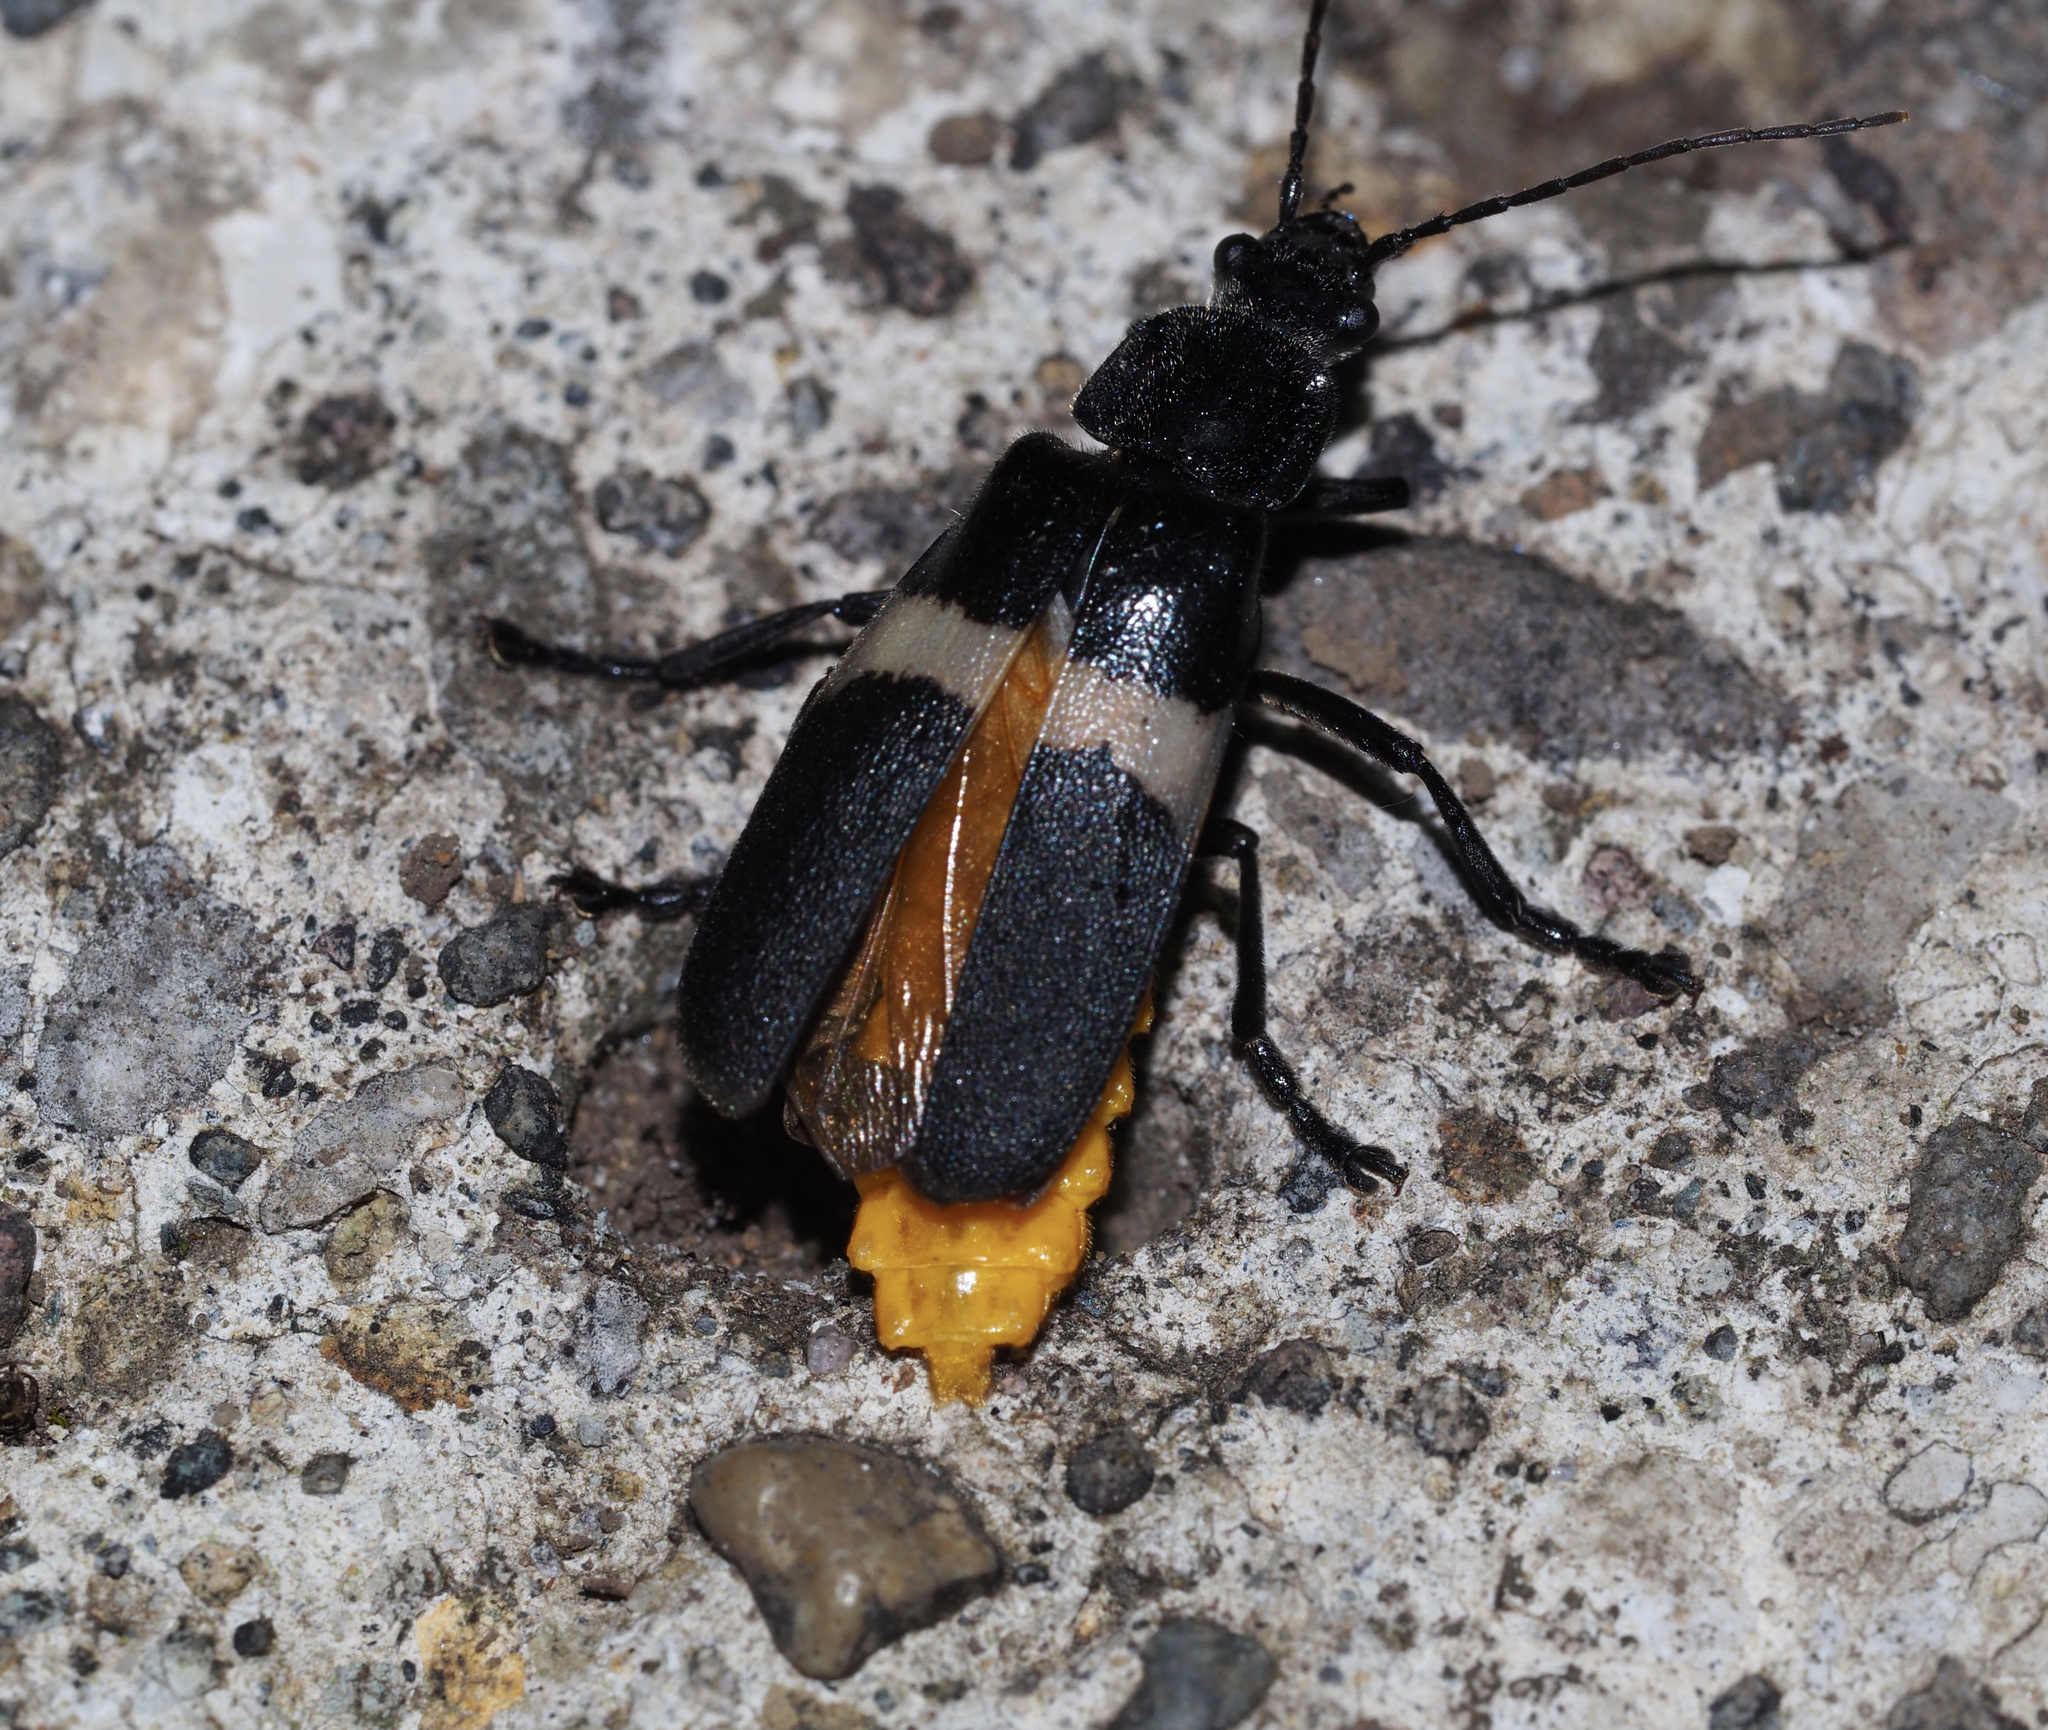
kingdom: Animalia
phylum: Arthropoda
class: Insecta
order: Coleoptera
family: Cantharidae
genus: Chauliognathus
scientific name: Chauliognathus
